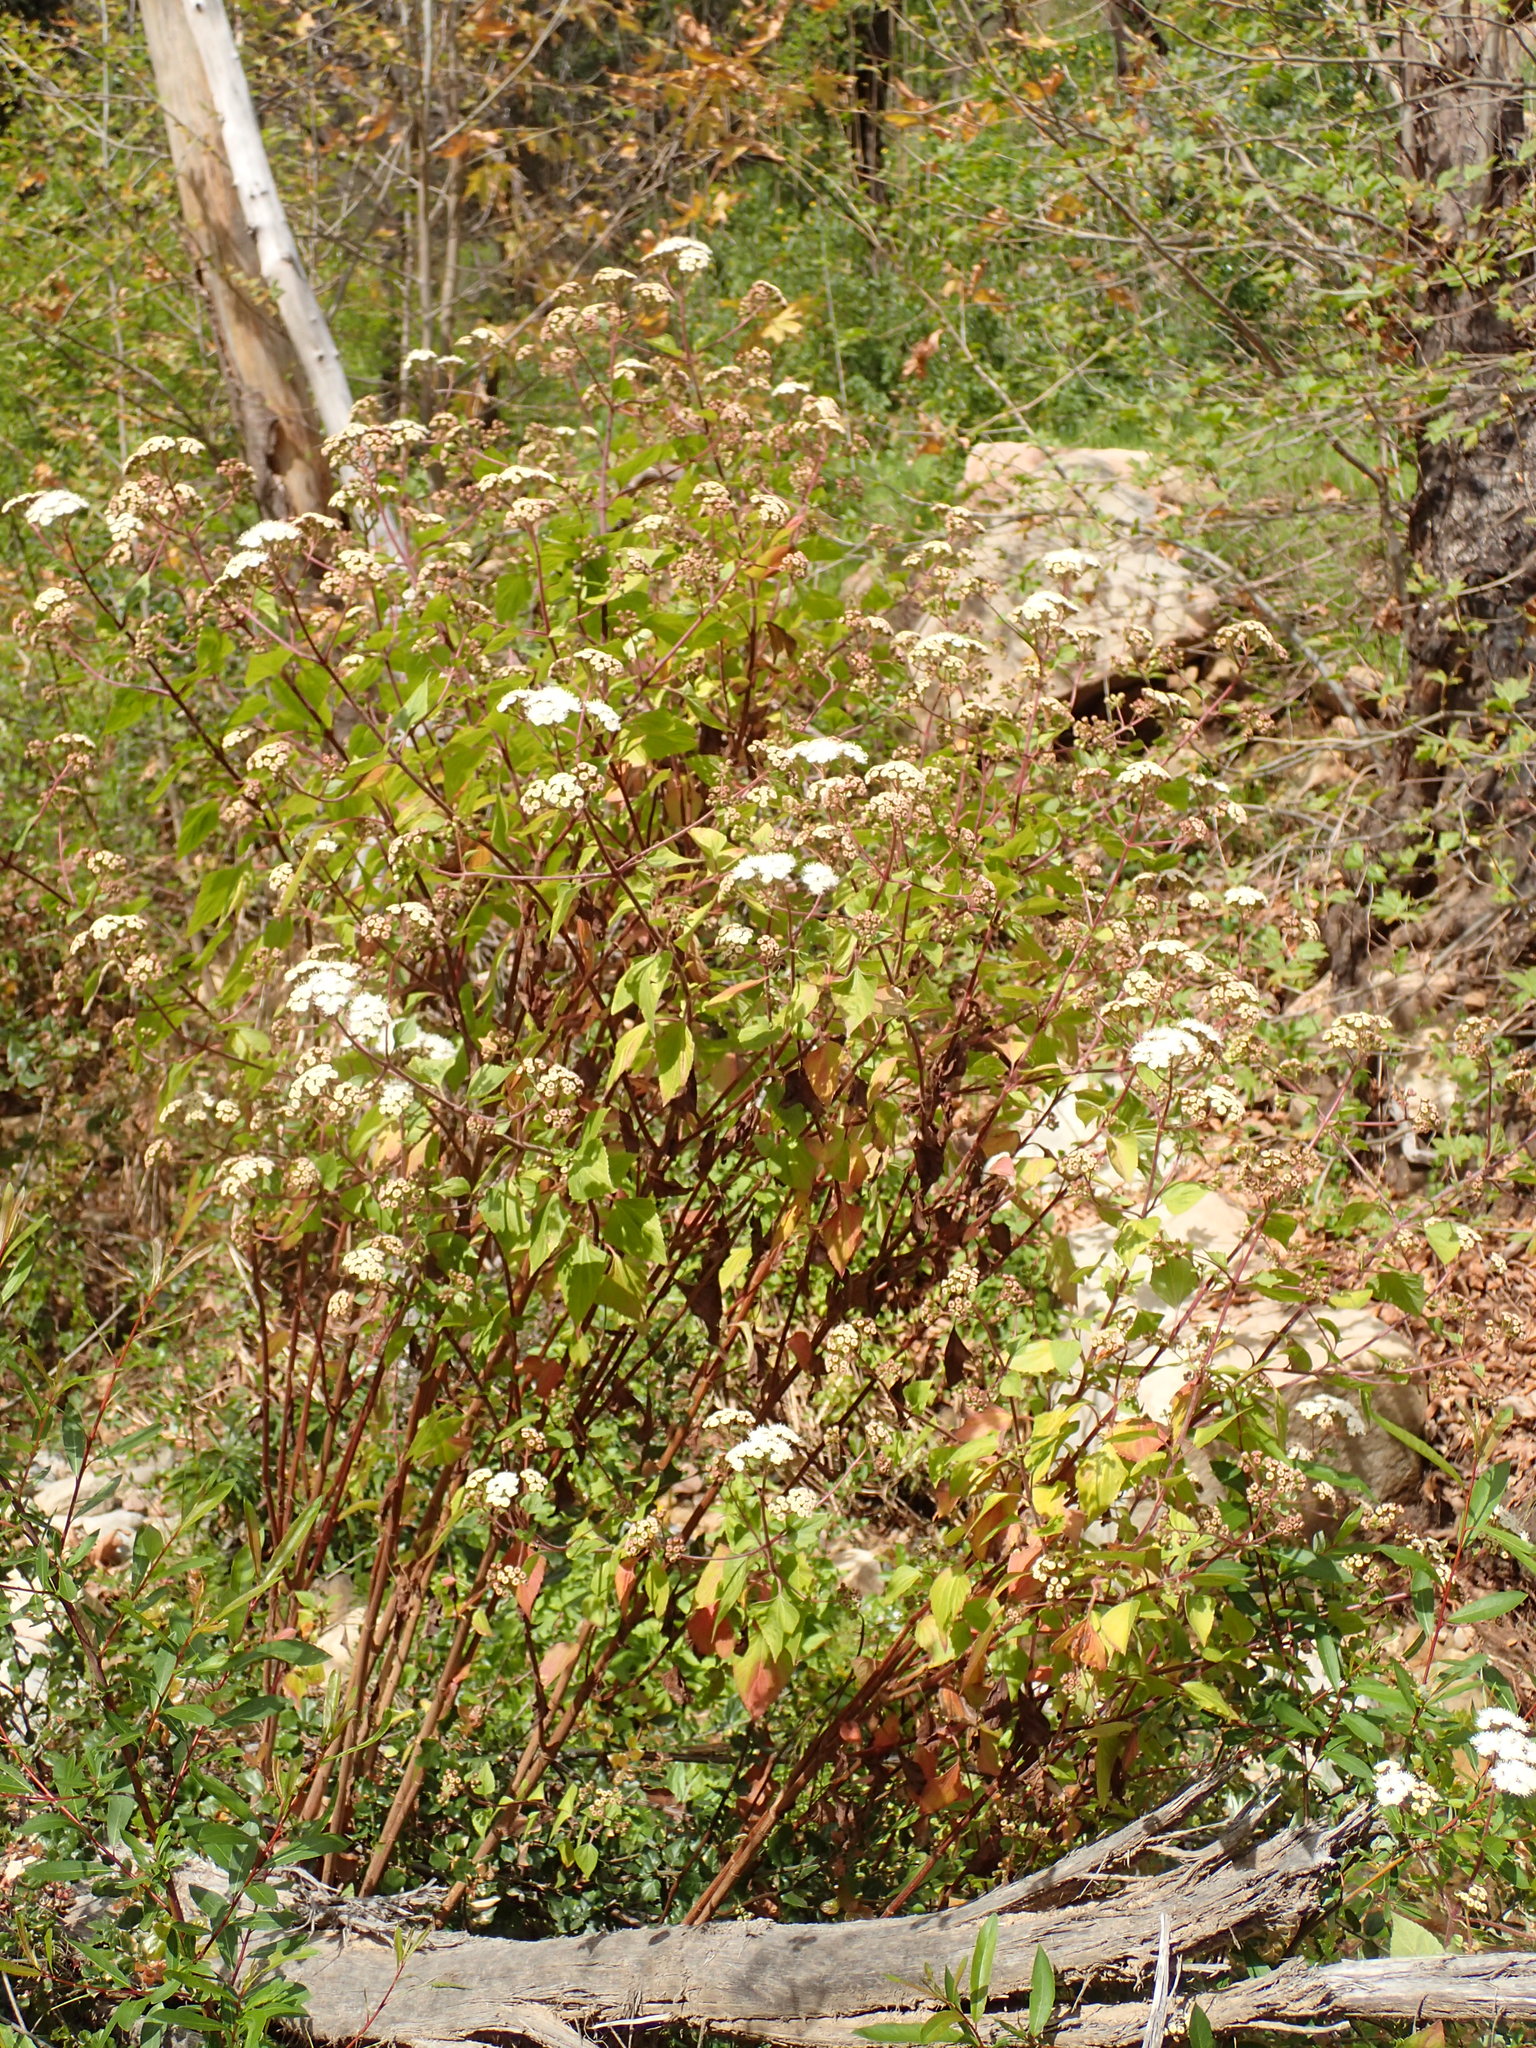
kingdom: Plantae
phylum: Tracheophyta
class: Magnoliopsida
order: Asterales
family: Asteraceae
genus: Ageratina
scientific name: Ageratina adenophora
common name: Sticky snakeroot
